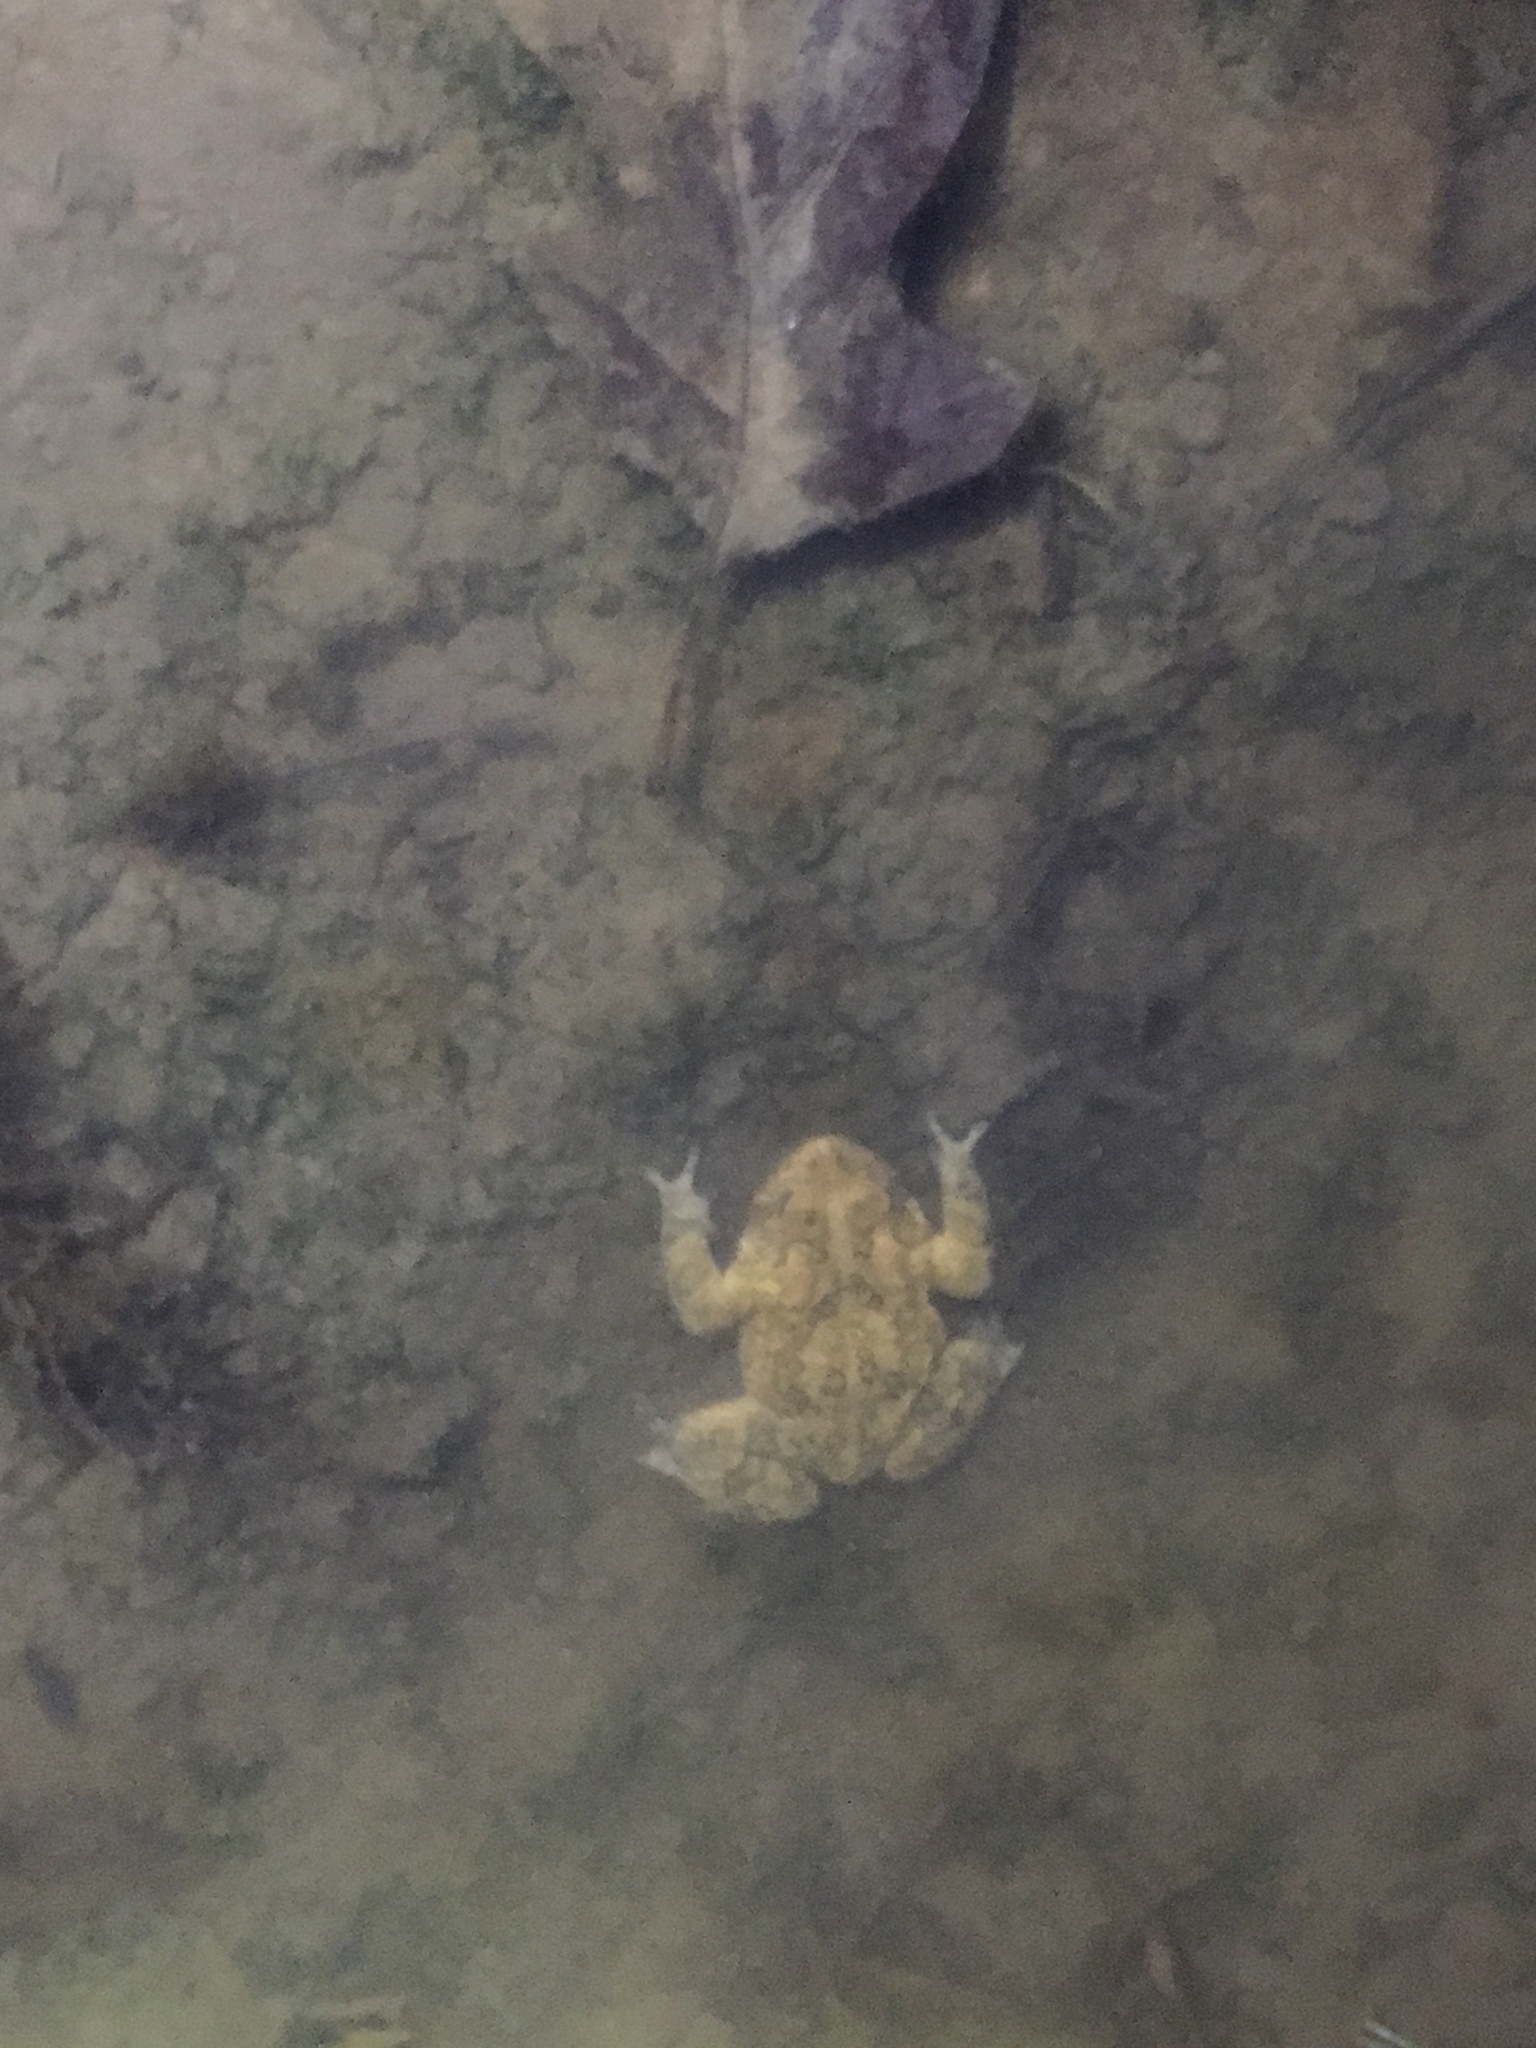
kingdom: Animalia
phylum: Chordata
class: Amphibia
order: Anura
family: Bufonidae
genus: Anaxyrus
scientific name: Anaxyrus americanus
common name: American toad
